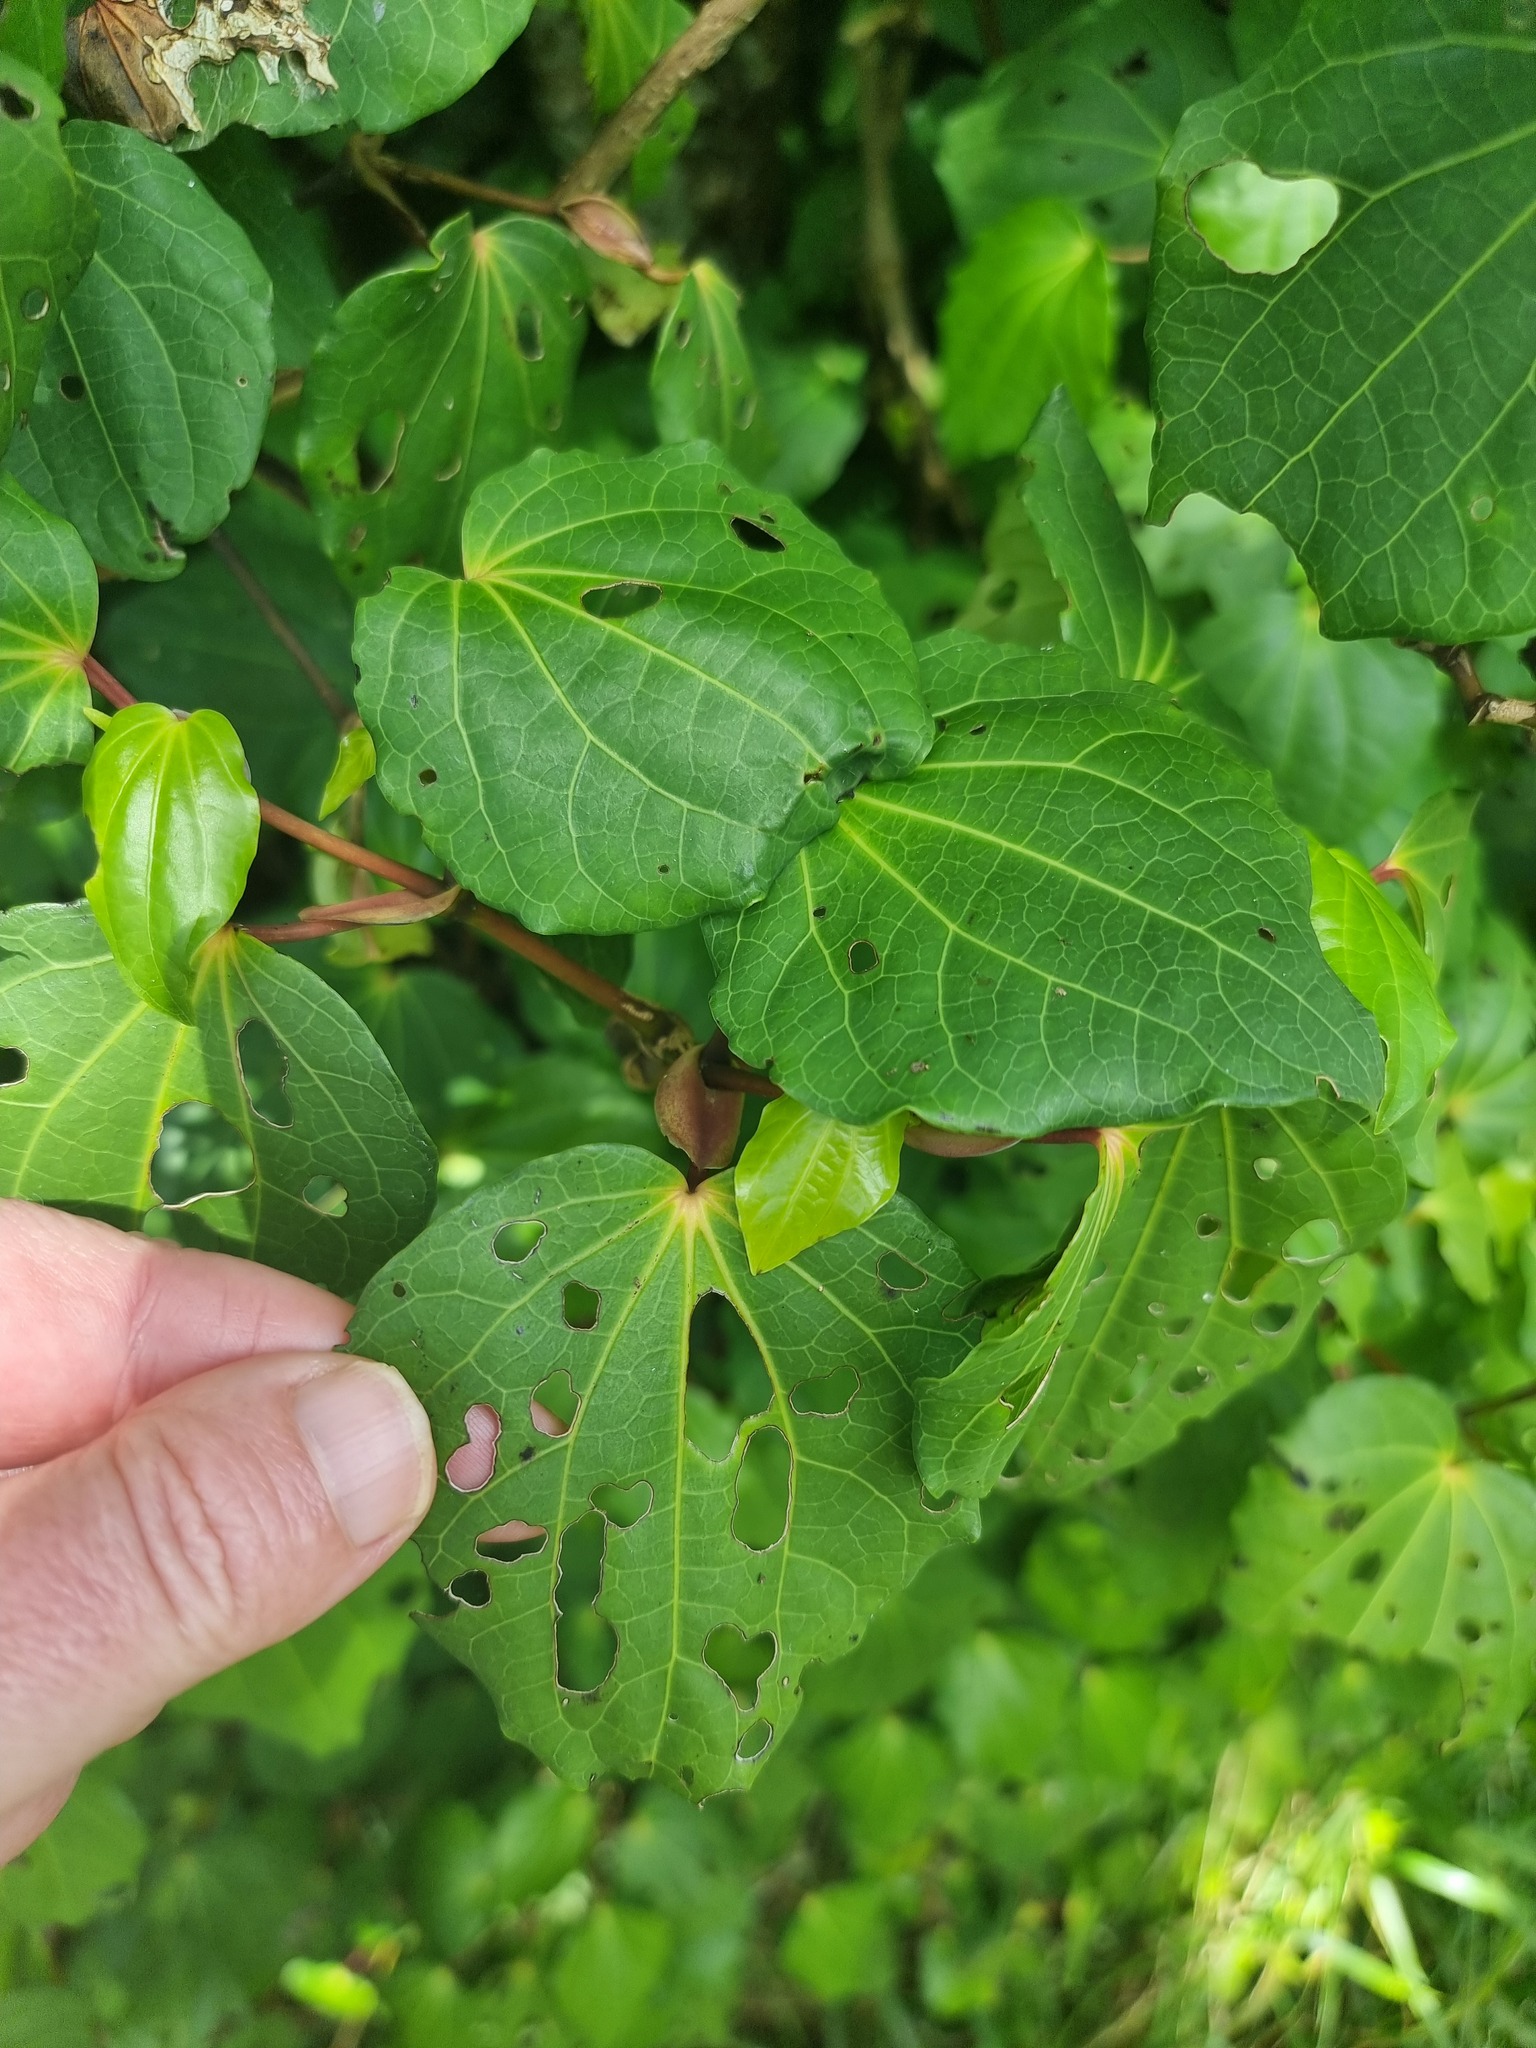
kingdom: Plantae
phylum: Tracheophyta
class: Magnoliopsida
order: Piperales
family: Piperaceae
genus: Macropiper
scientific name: Macropiper excelsum
